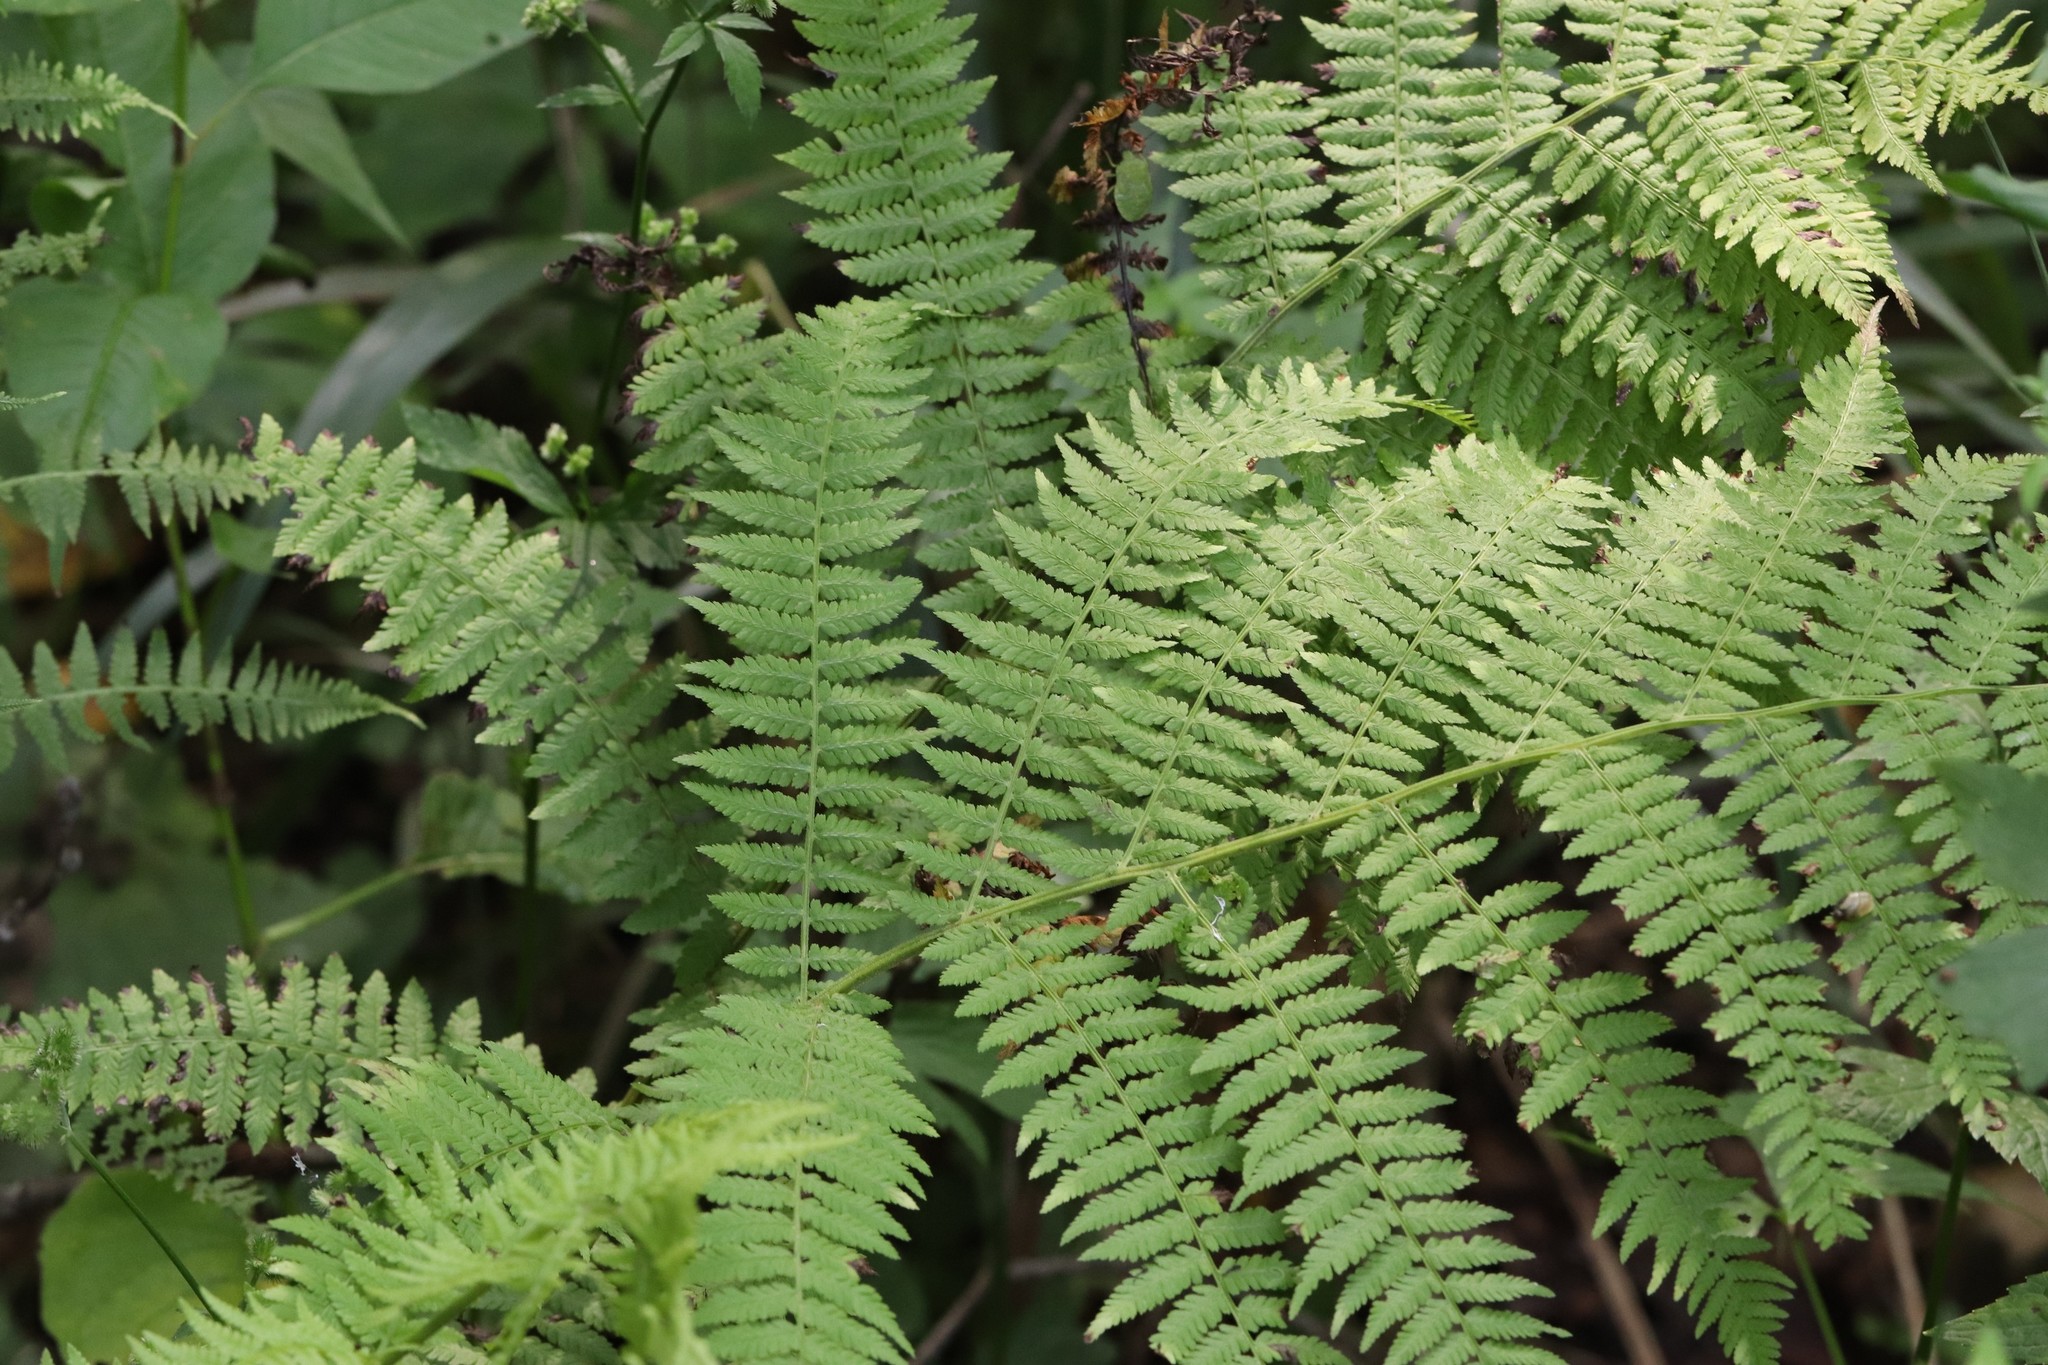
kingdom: Plantae
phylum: Tracheophyta
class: Polypodiopsida
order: Polypodiales
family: Athyriaceae
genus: Athyrium
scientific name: Athyrium filix-femina
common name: Lady fern
